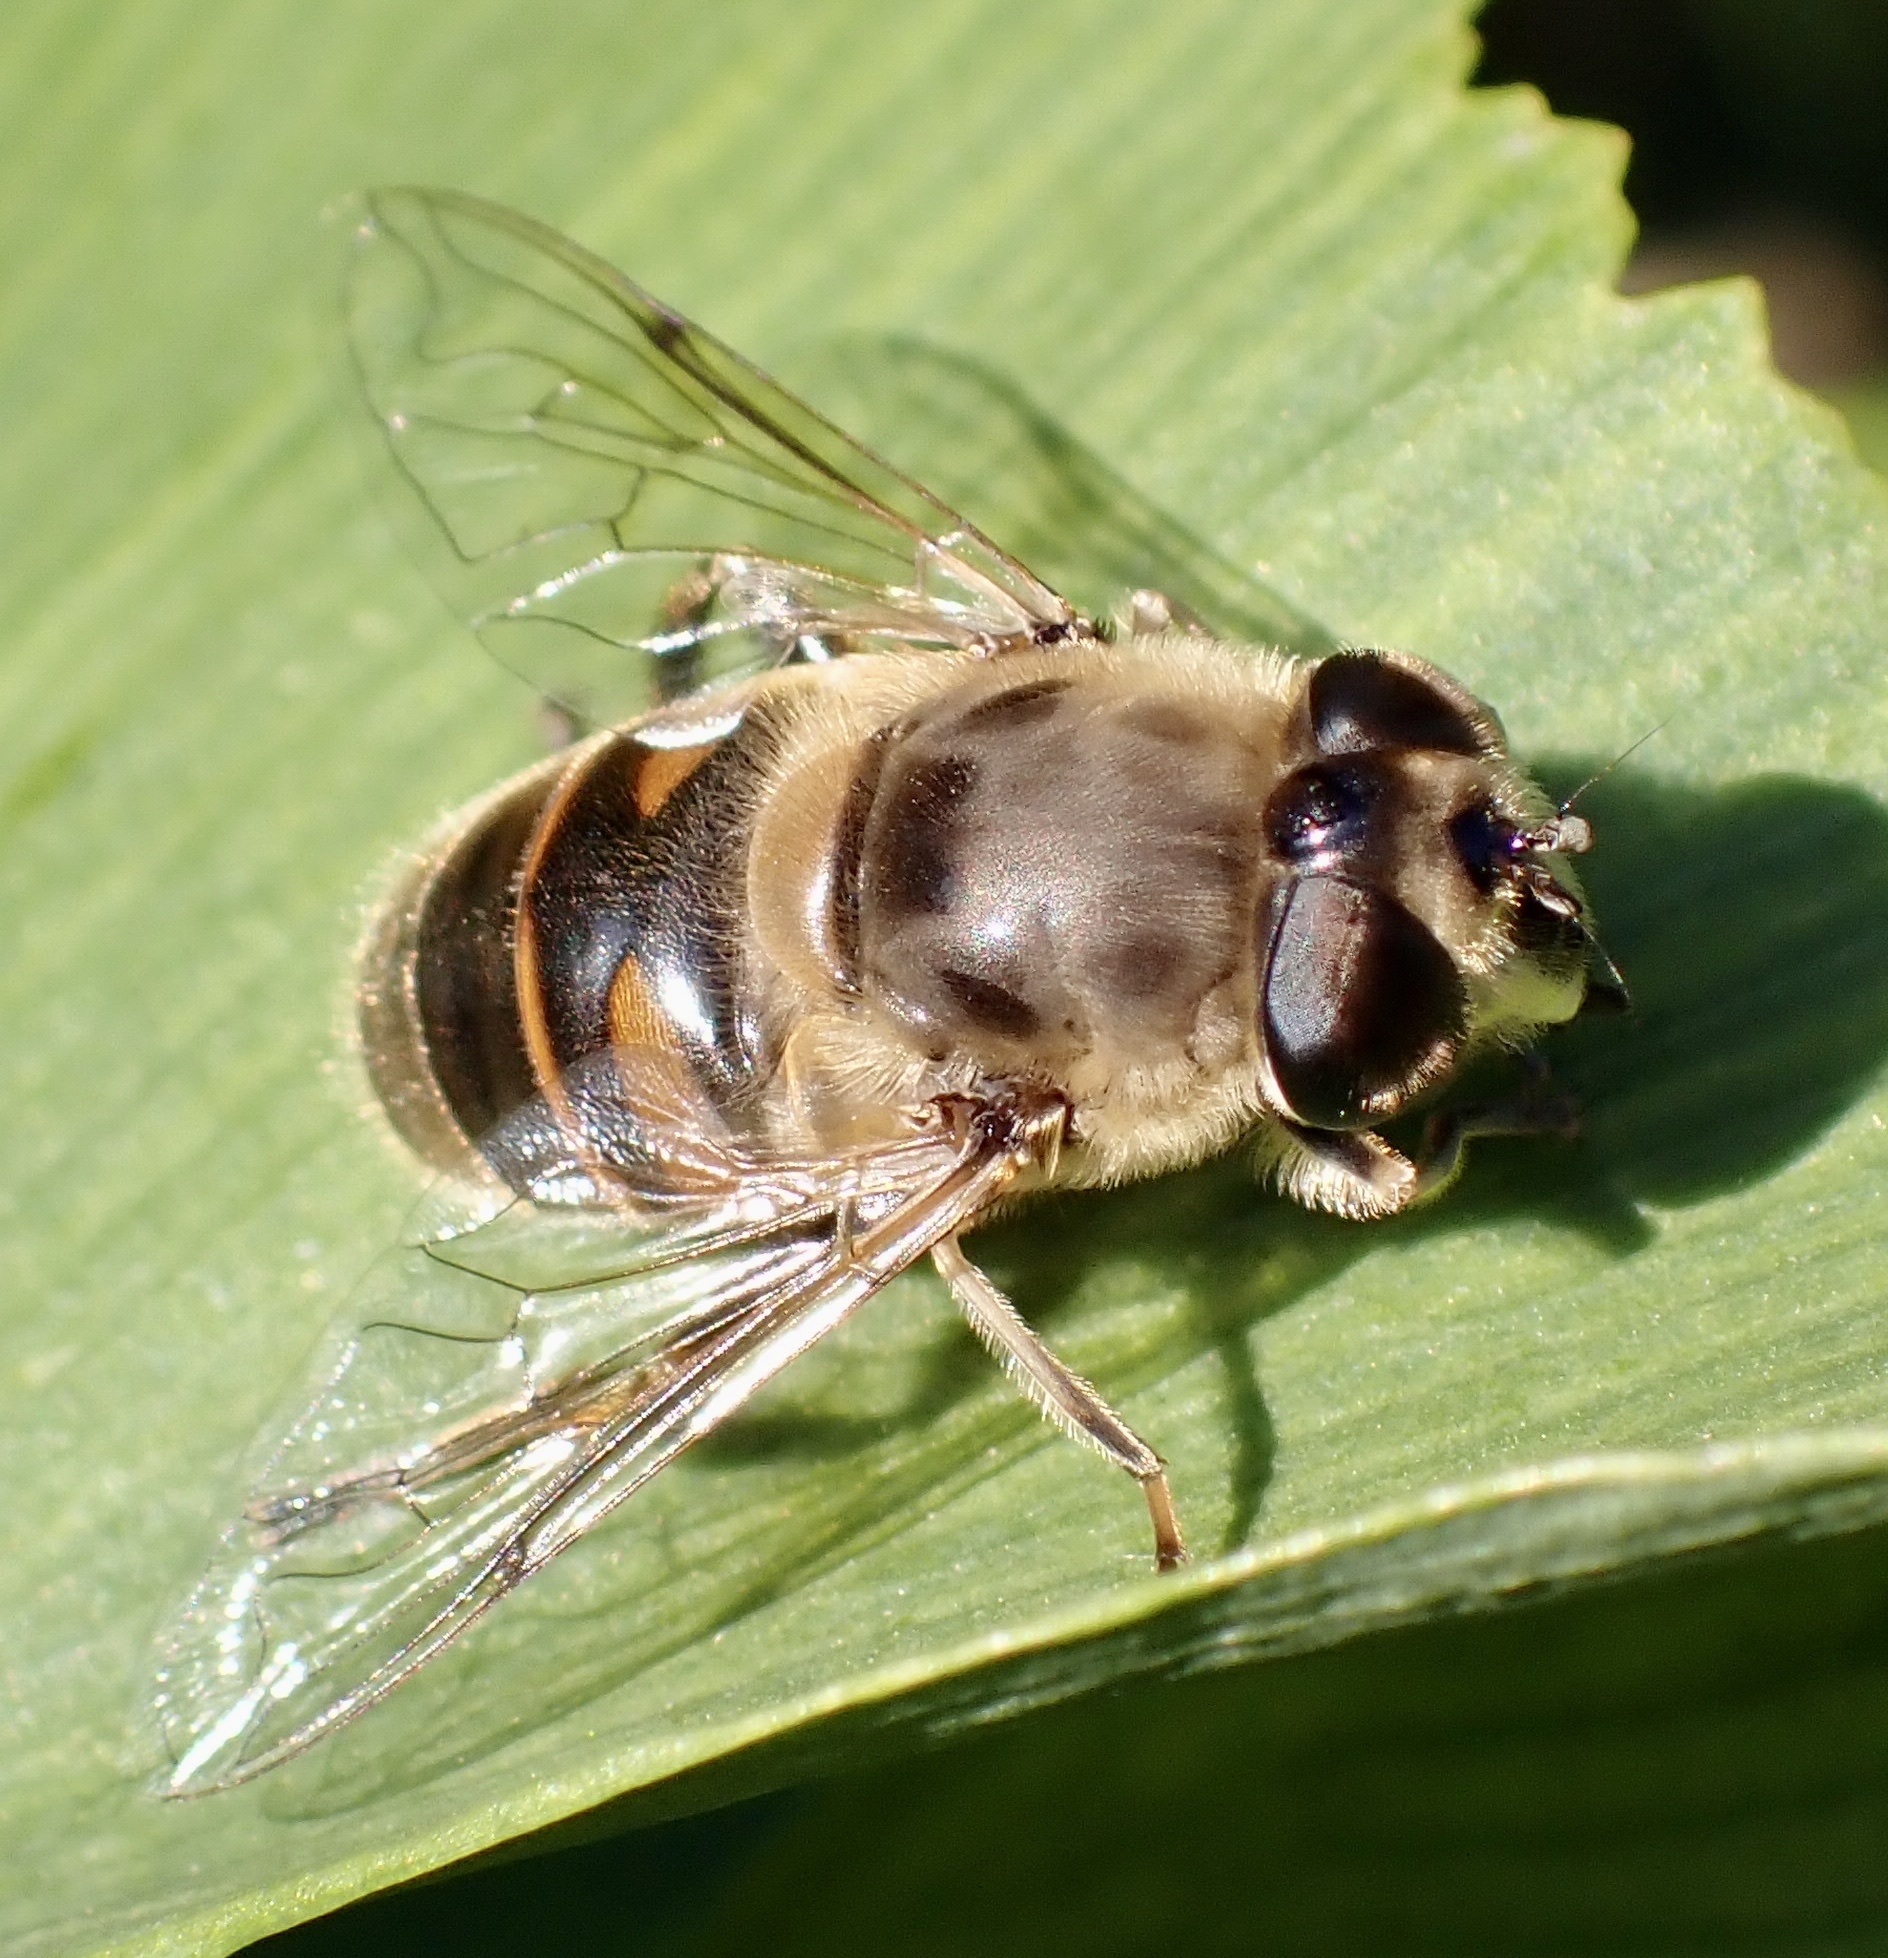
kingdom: Animalia
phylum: Arthropoda
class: Insecta
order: Diptera
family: Syrphidae
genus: Eristalis
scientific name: Eristalis tenax
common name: Drone fly
